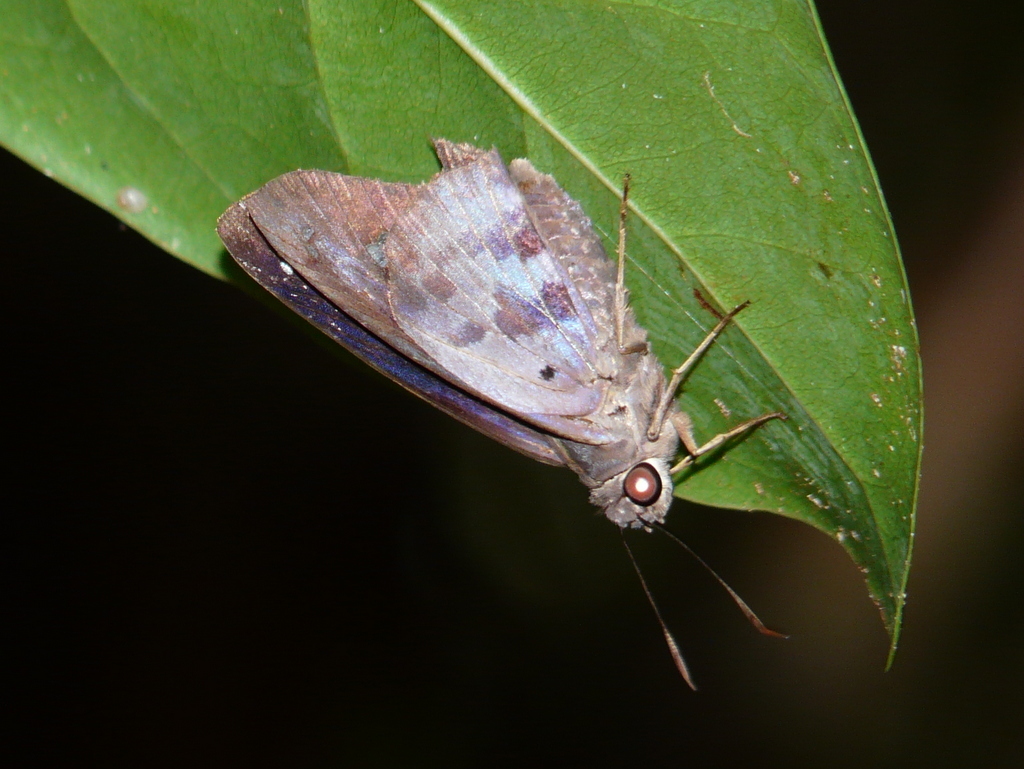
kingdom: Animalia
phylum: Arthropoda
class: Insecta
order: Lepidoptera
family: Hesperiidae
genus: Polygonus
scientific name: Polygonus leo
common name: Hammoch skipper
